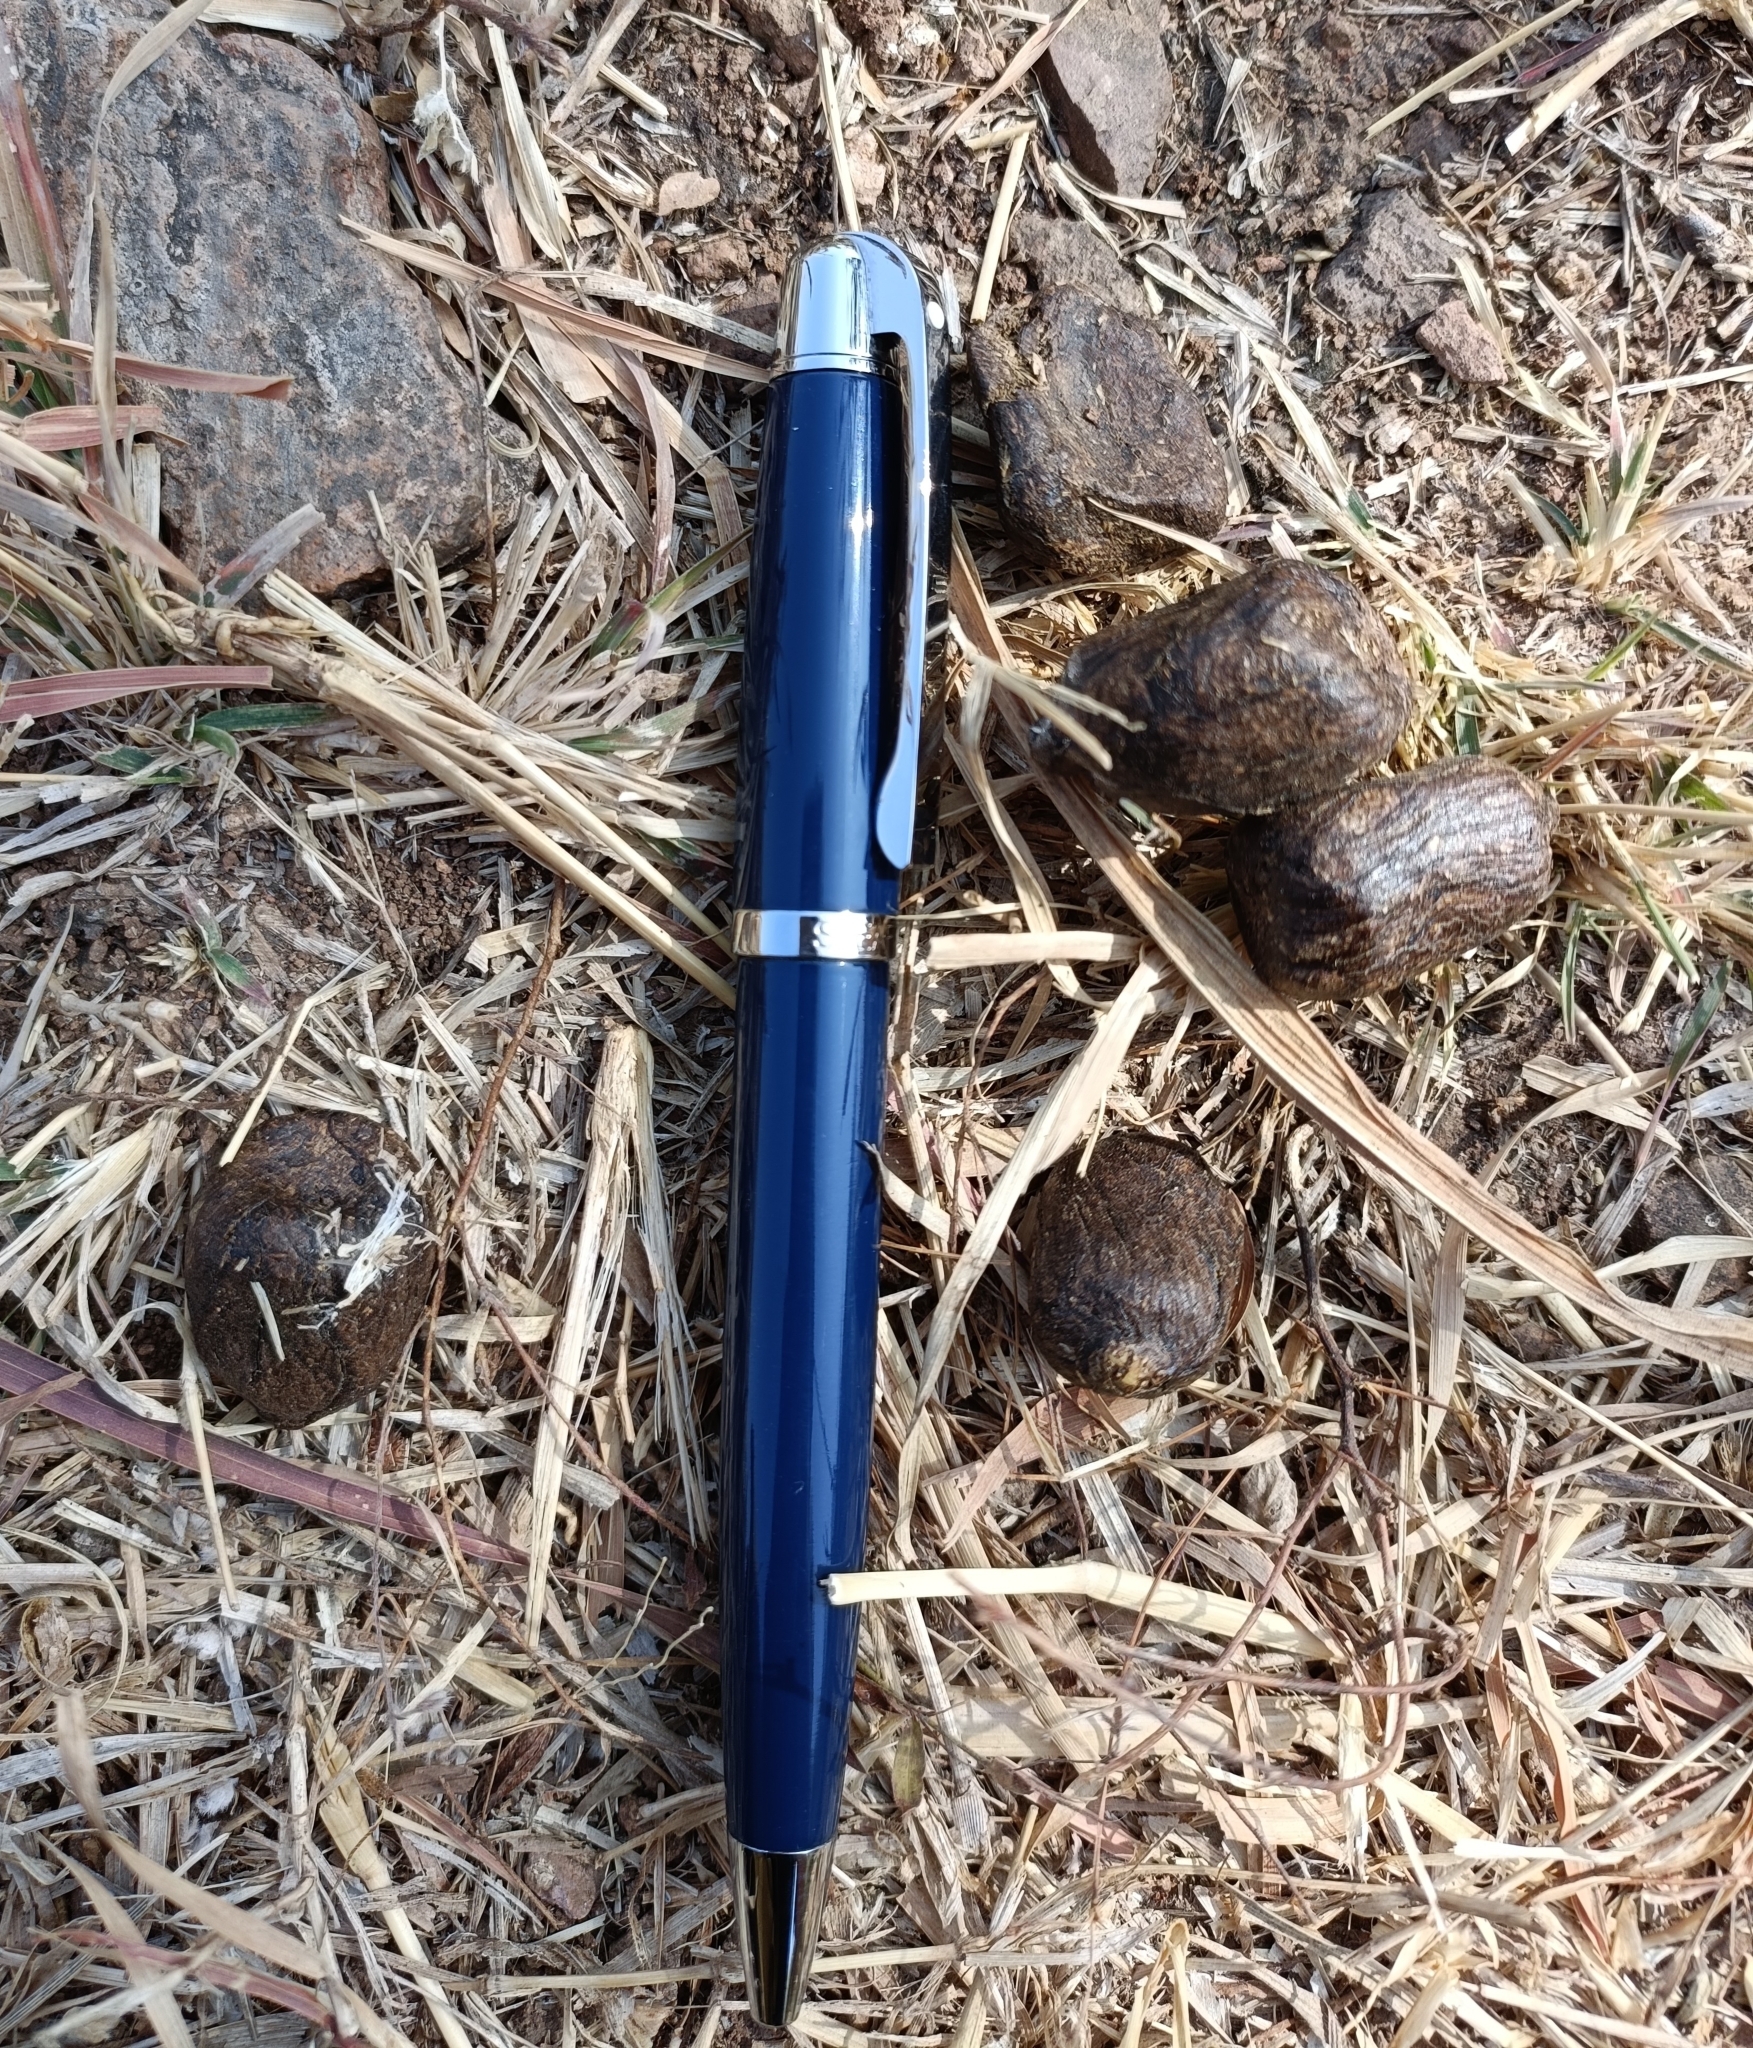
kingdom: Animalia
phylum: Chordata
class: Mammalia
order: Artiodactyla
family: Bovidae
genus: Boselaphus
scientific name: Boselaphus tragocamelus
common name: Nilgai
